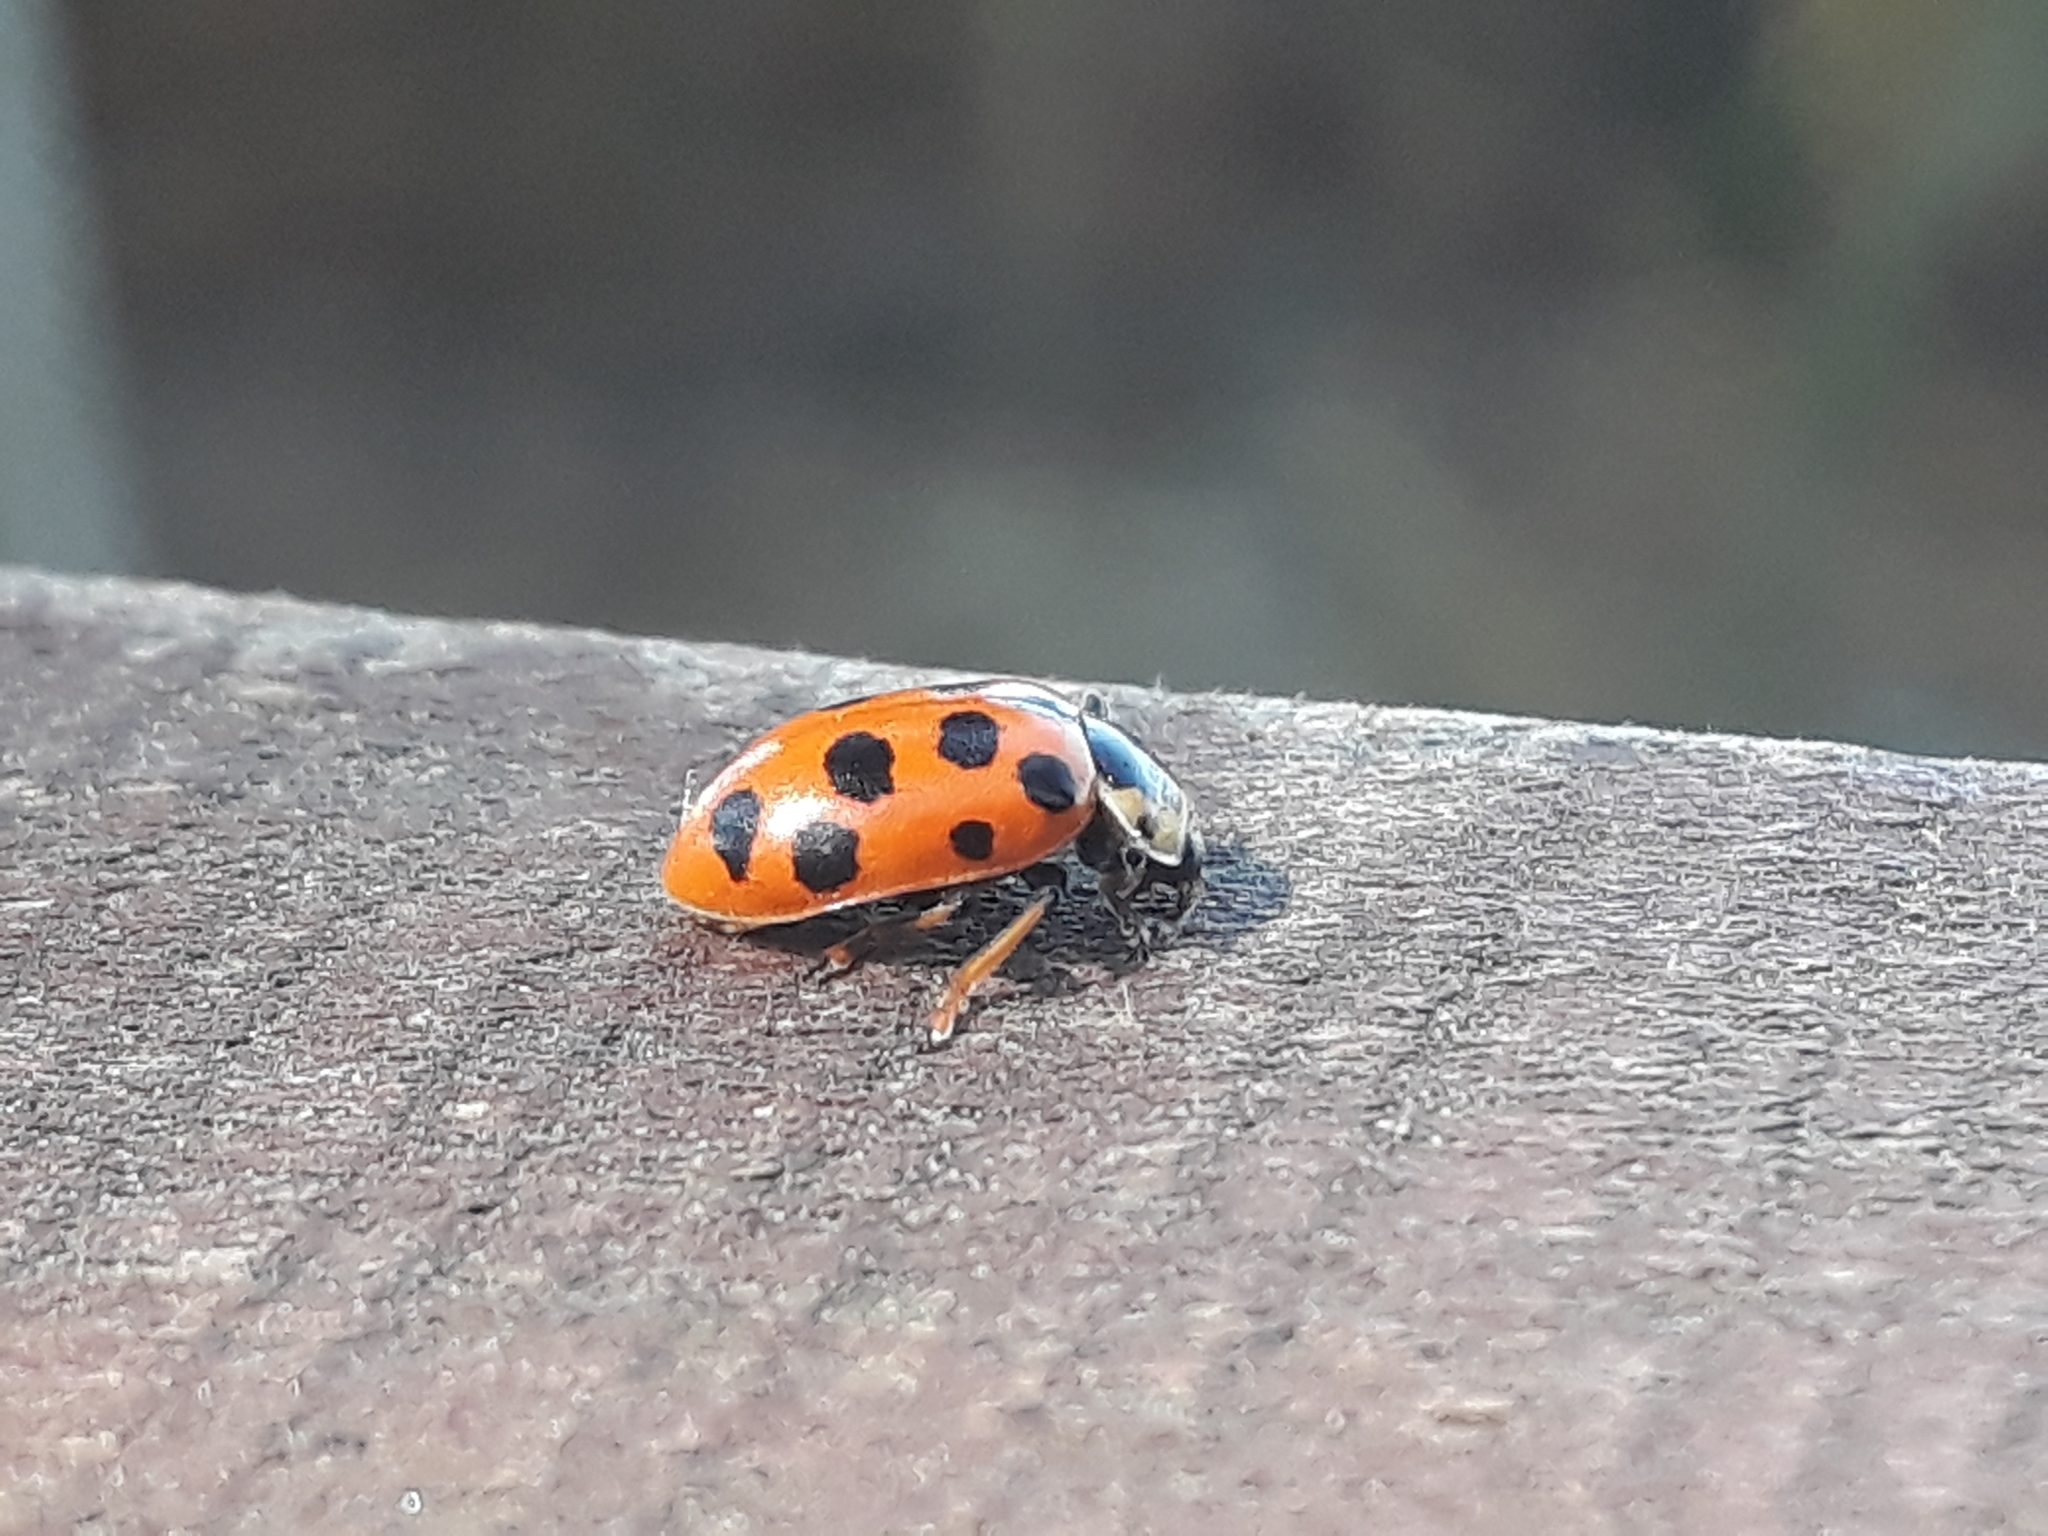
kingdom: Animalia
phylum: Arthropoda
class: Insecta
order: Coleoptera
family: Coccinellidae
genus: Hippodamia
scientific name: Hippodamia tredecimpunctata
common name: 13-spot ladybird
